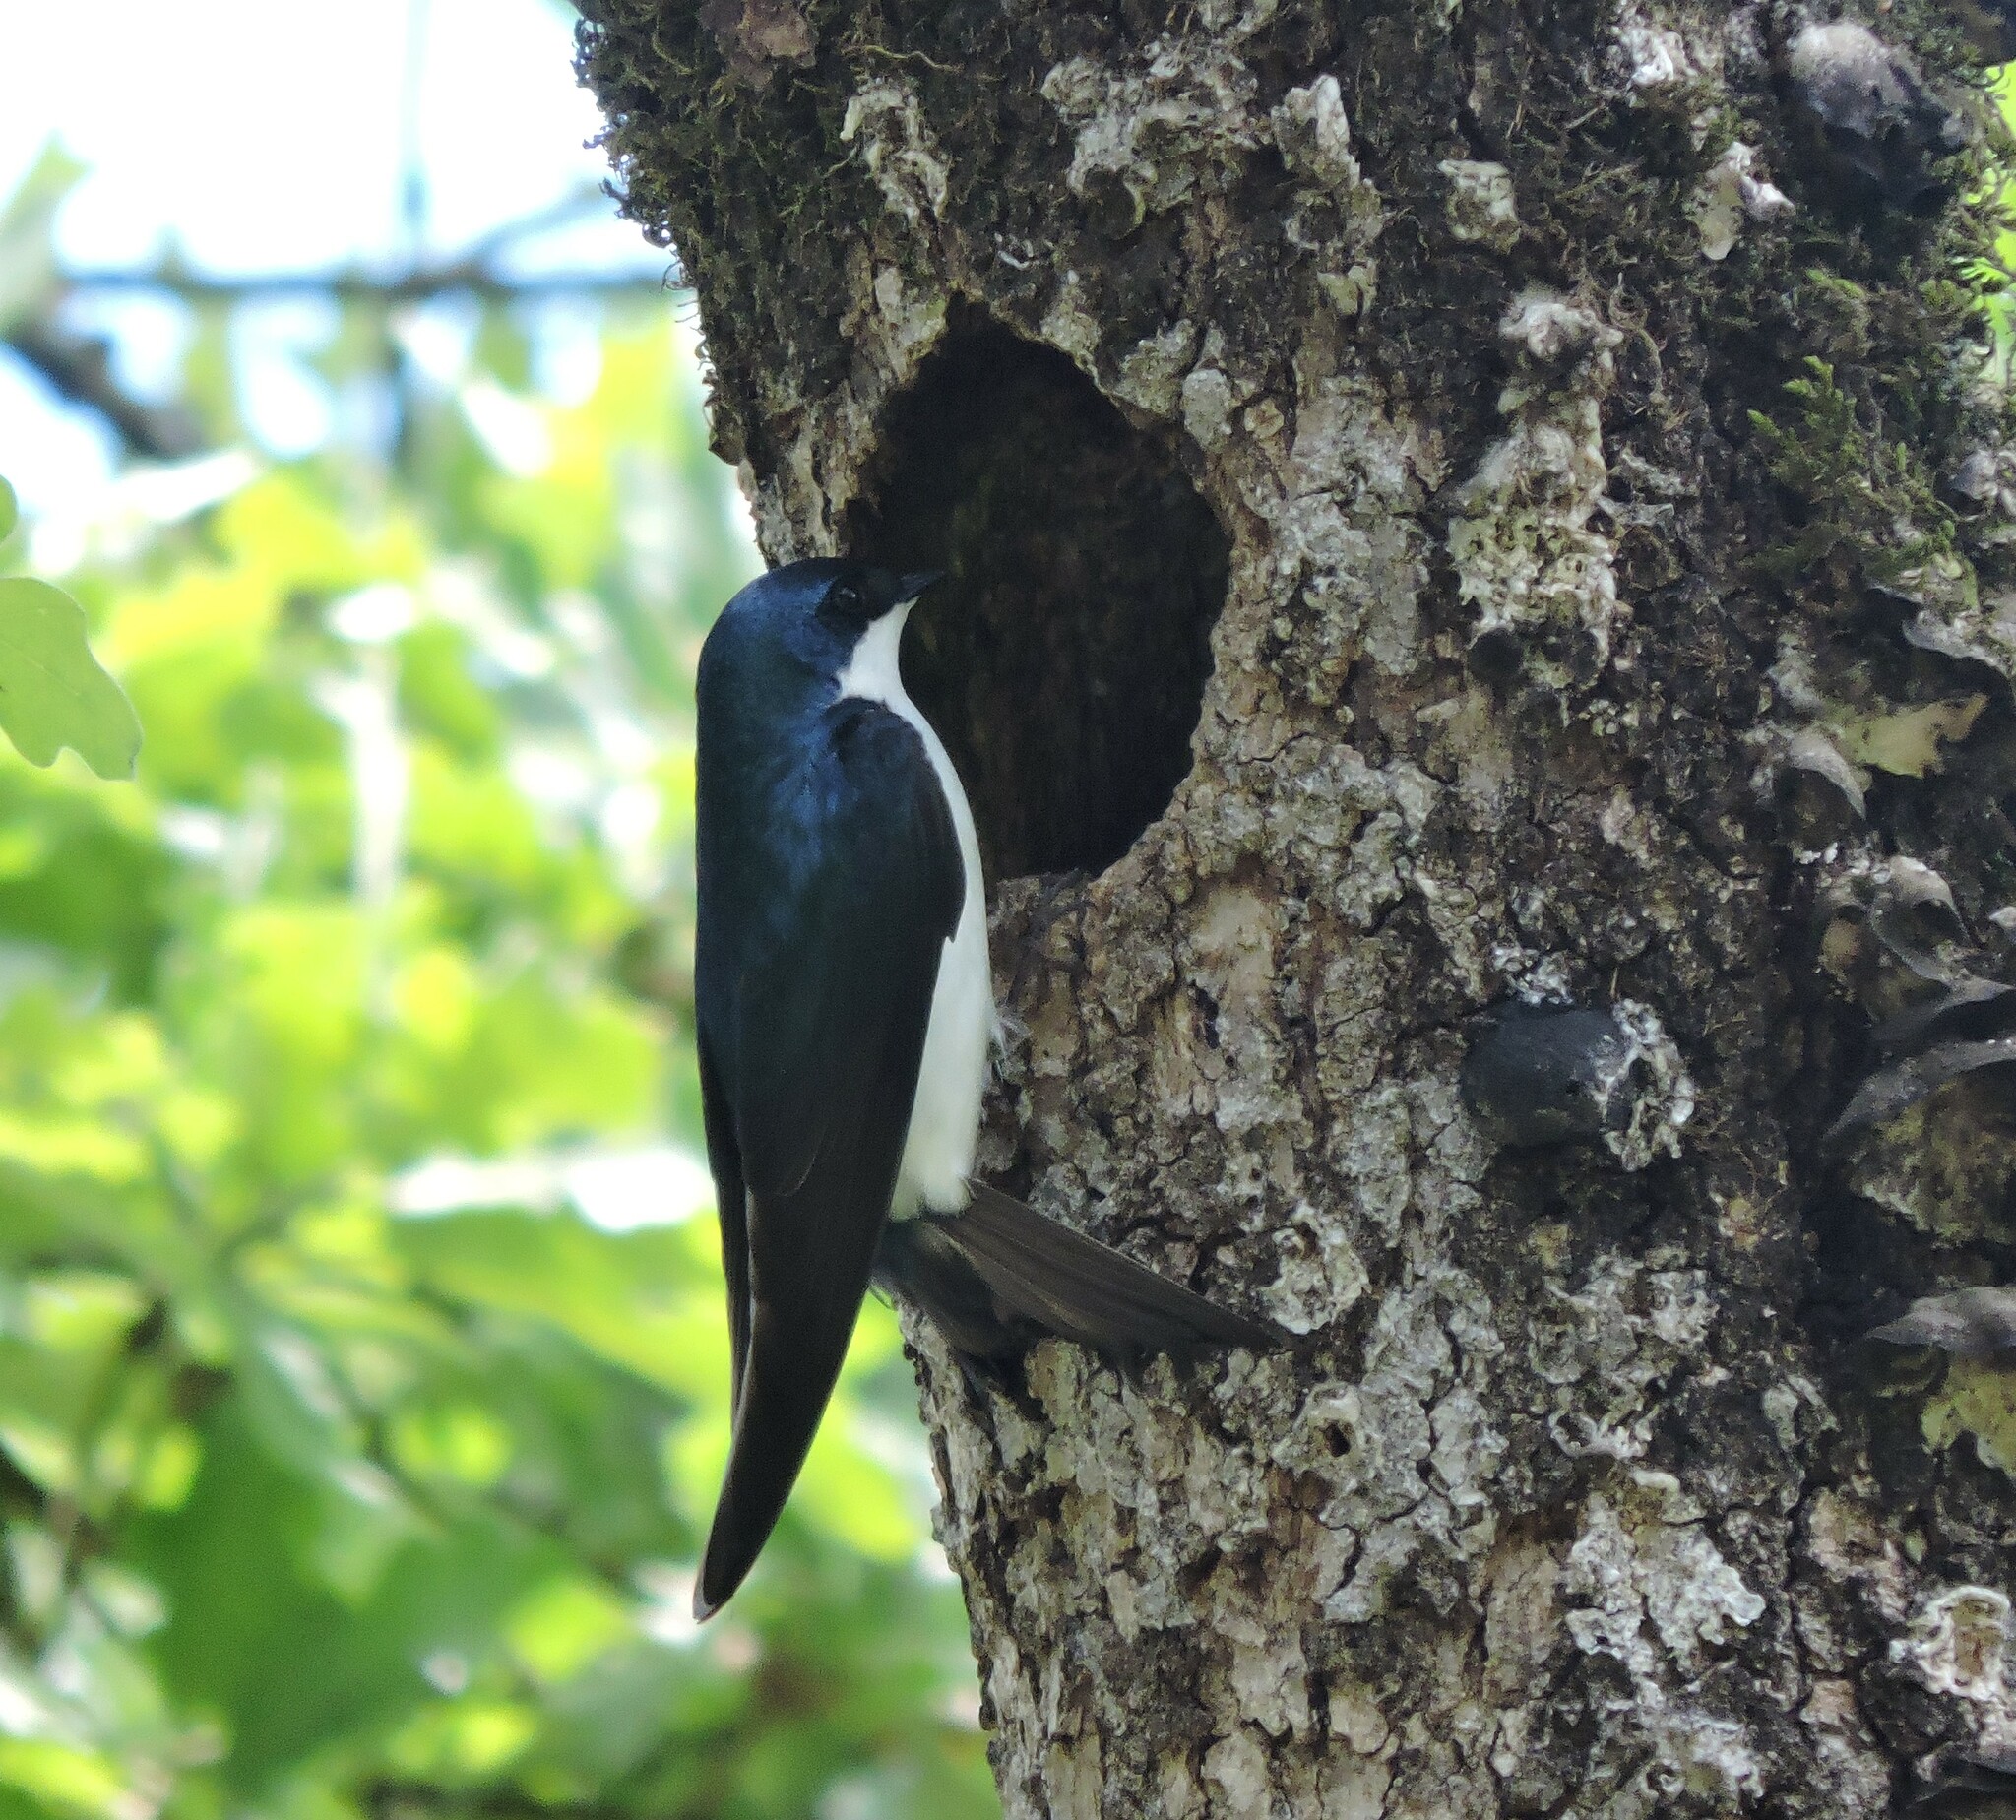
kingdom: Animalia
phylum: Chordata
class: Aves
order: Passeriformes
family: Hirundinidae
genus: Tachycineta
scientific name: Tachycineta bicolor
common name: Tree swallow
